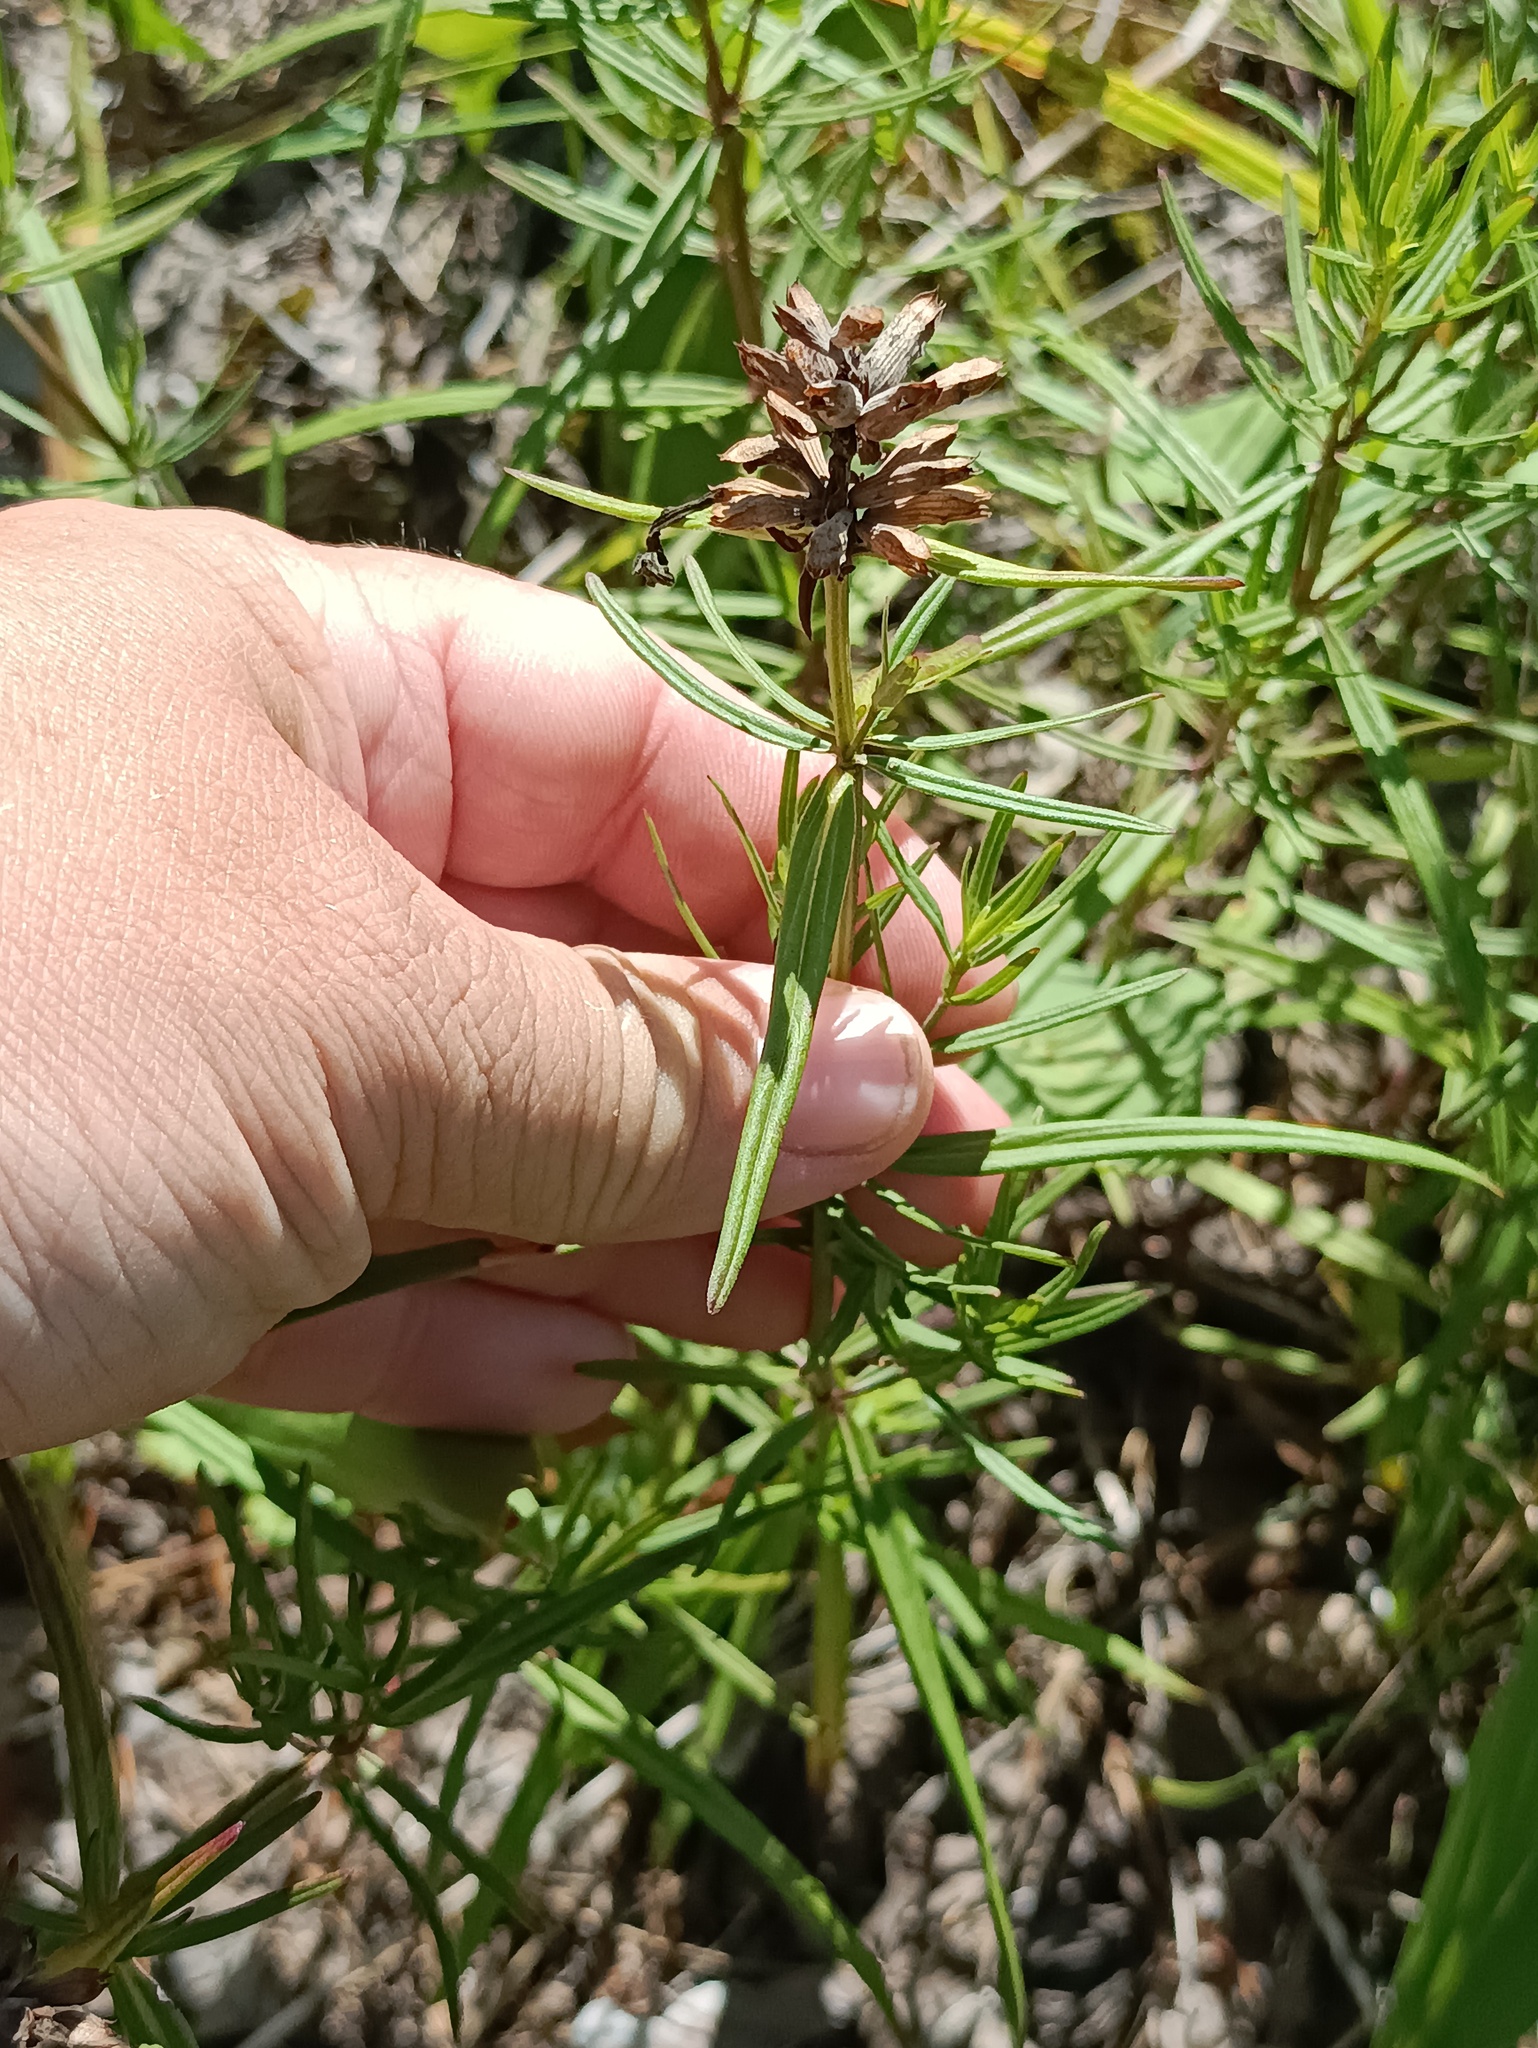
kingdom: Plantae
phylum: Tracheophyta
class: Magnoliopsida
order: Lamiales
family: Lamiaceae
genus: Dracocephalum
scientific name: Dracocephalum ruyschiana
